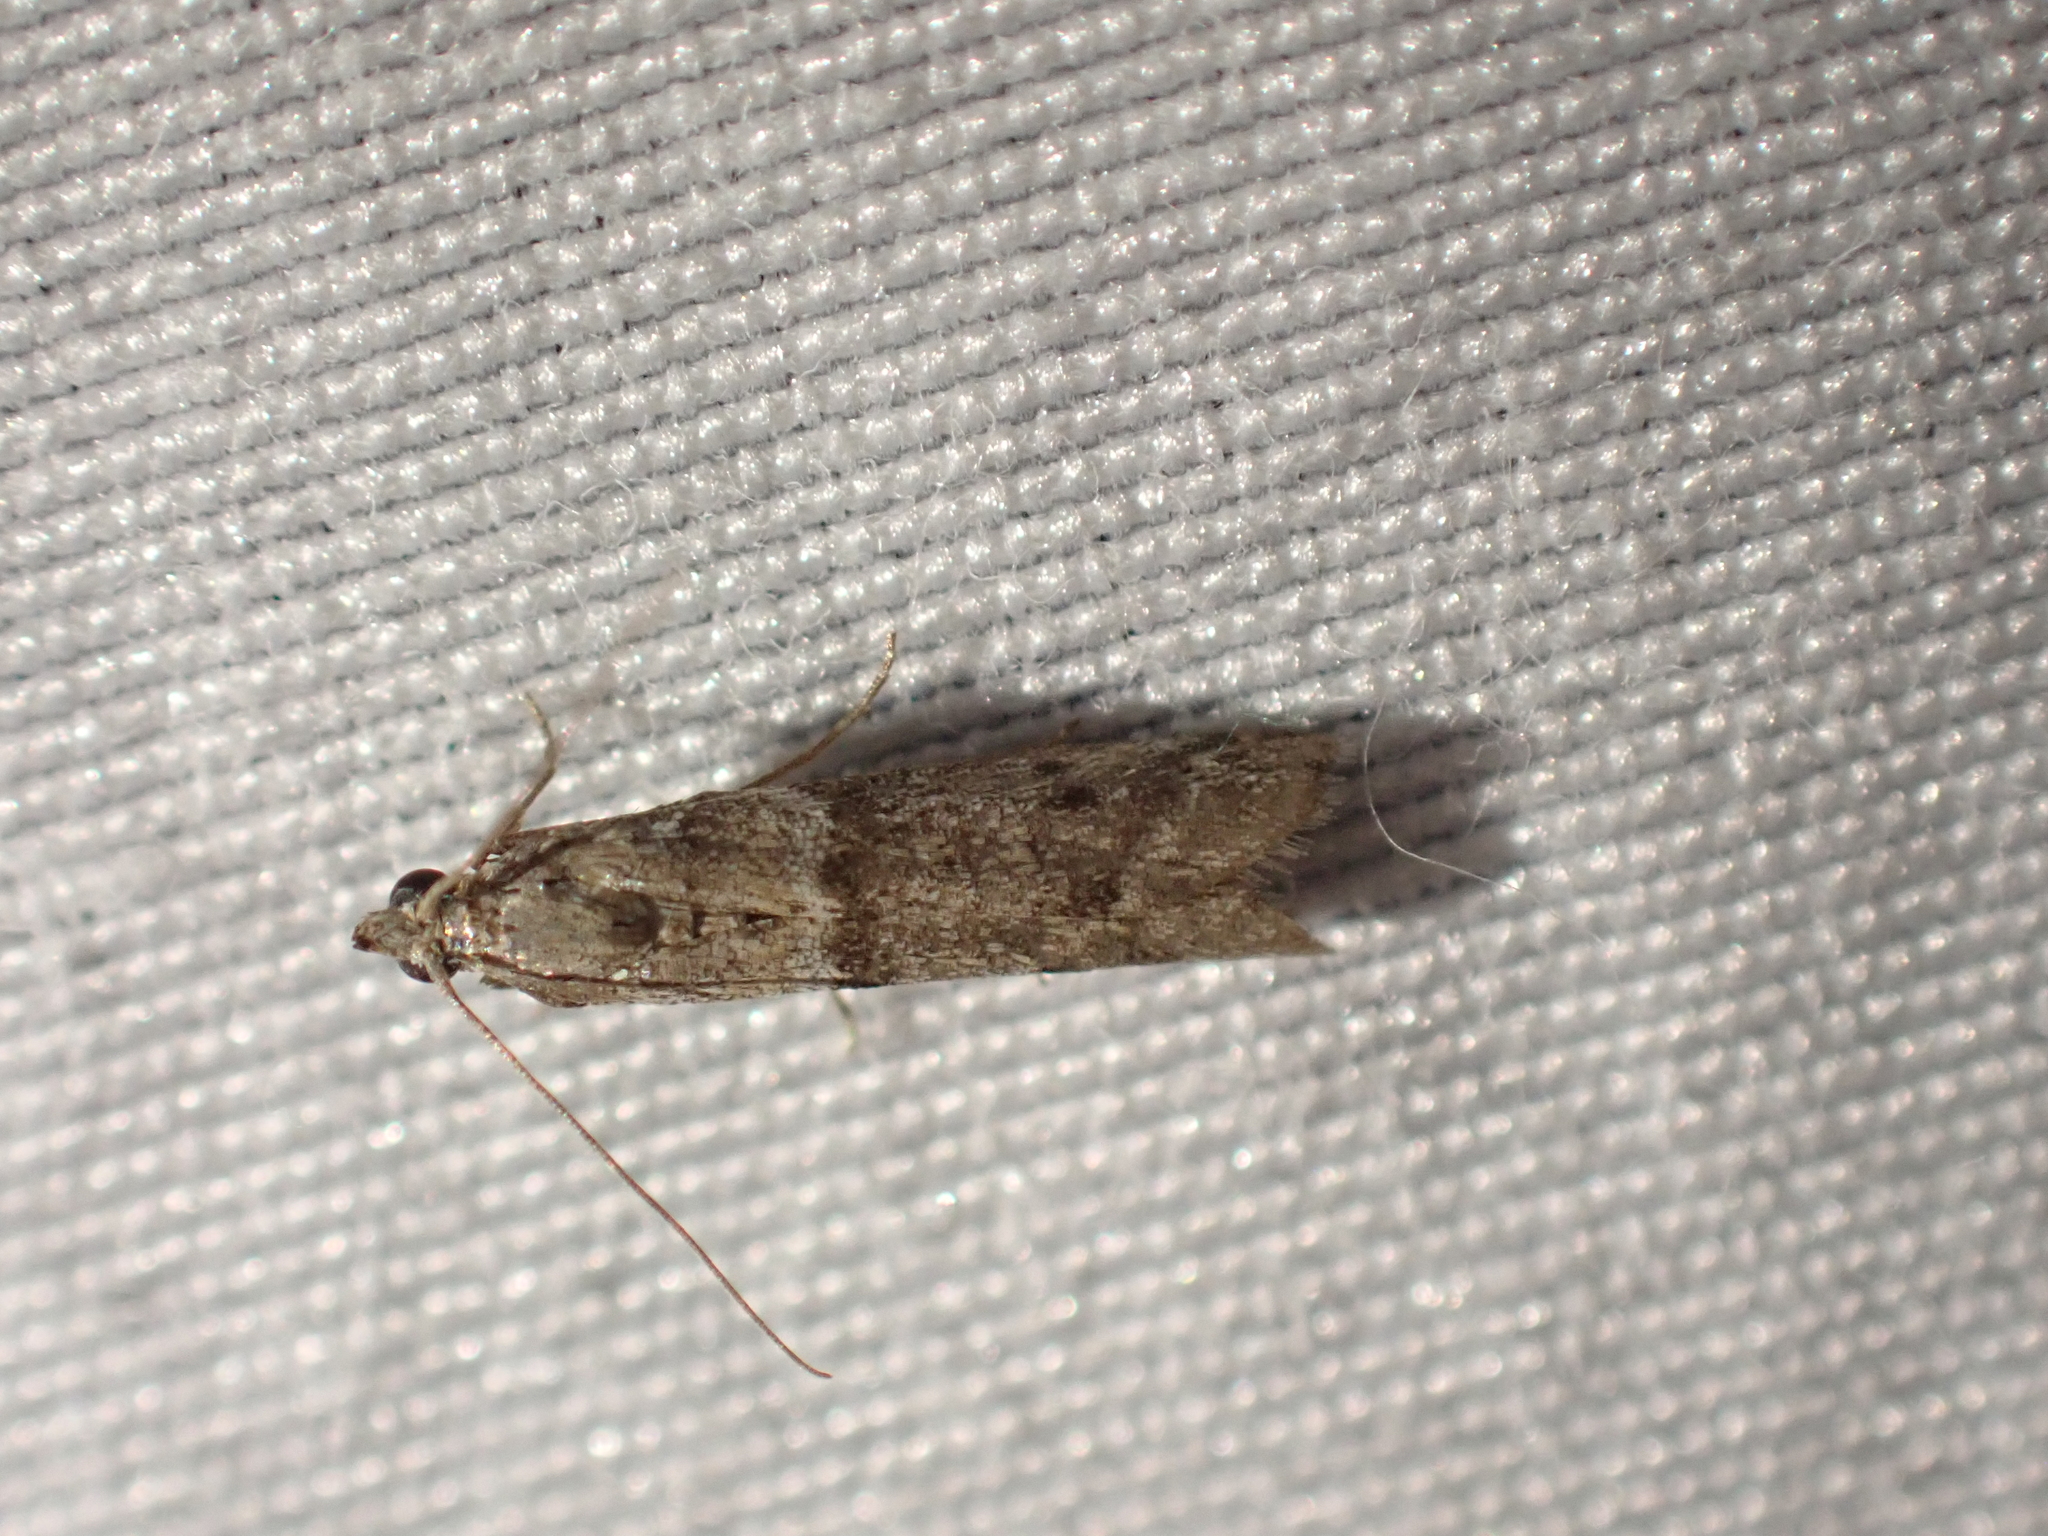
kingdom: Animalia
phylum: Arthropoda
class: Insecta
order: Lepidoptera
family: Pyralidae
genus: Ephestiodes
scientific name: Ephestiodes gilvescentella
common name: Moth
